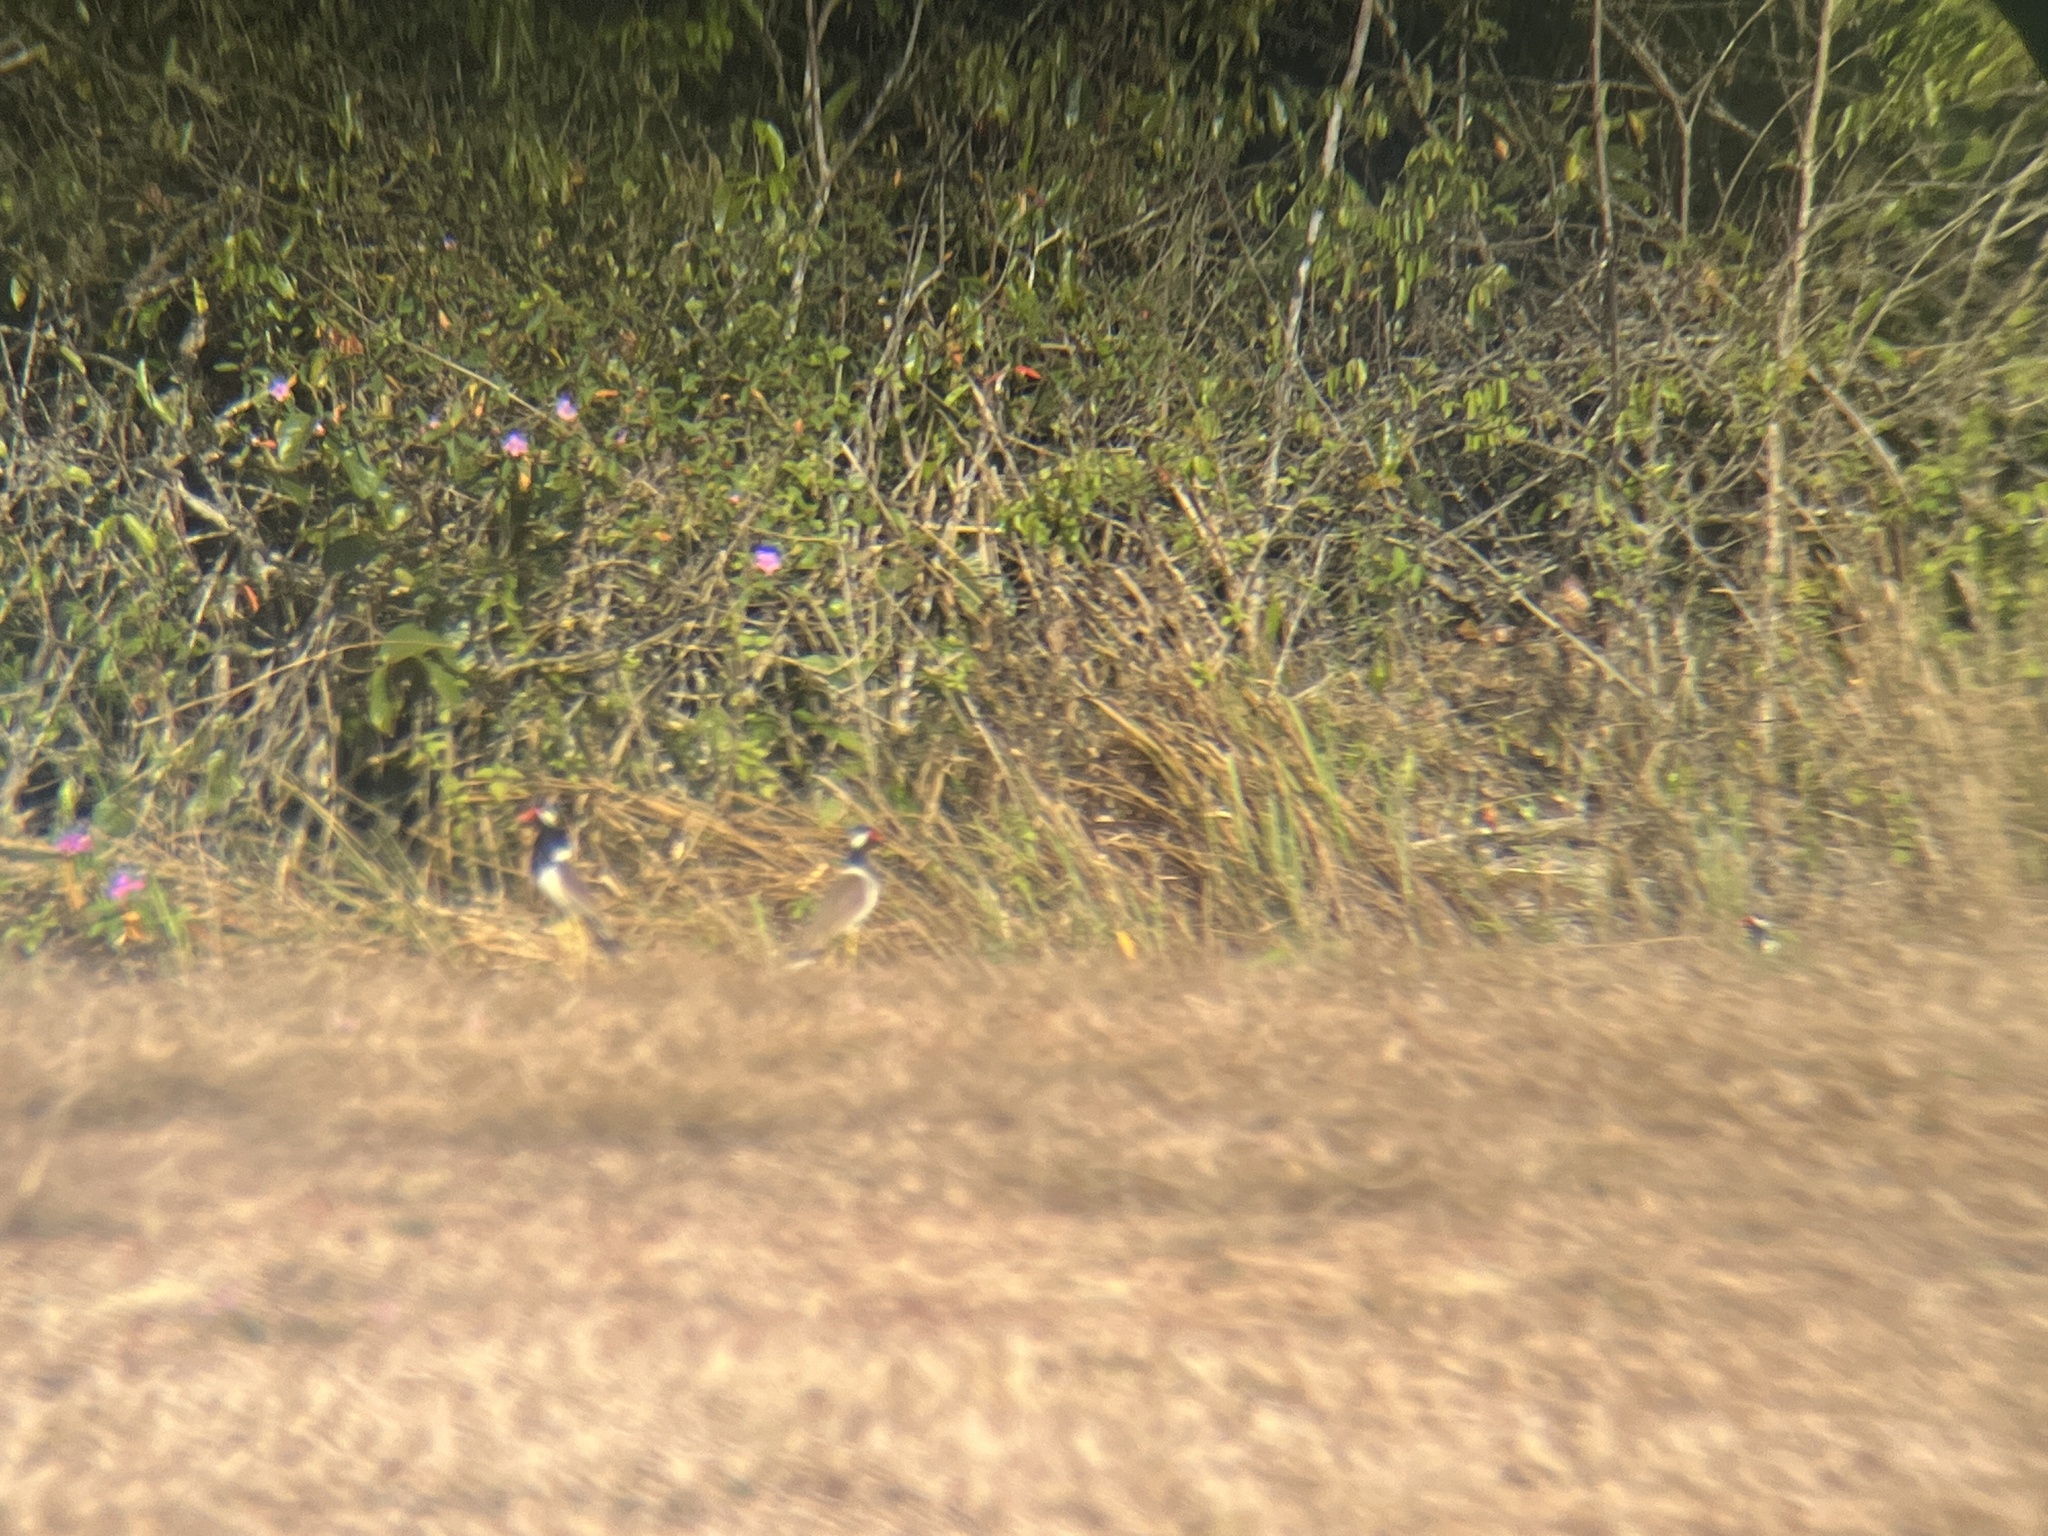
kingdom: Animalia
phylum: Chordata
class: Aves
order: Charadriiformes
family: Charadriidae
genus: Vanellus
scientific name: Vanellus indicus
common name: Red-wattled lapwing
